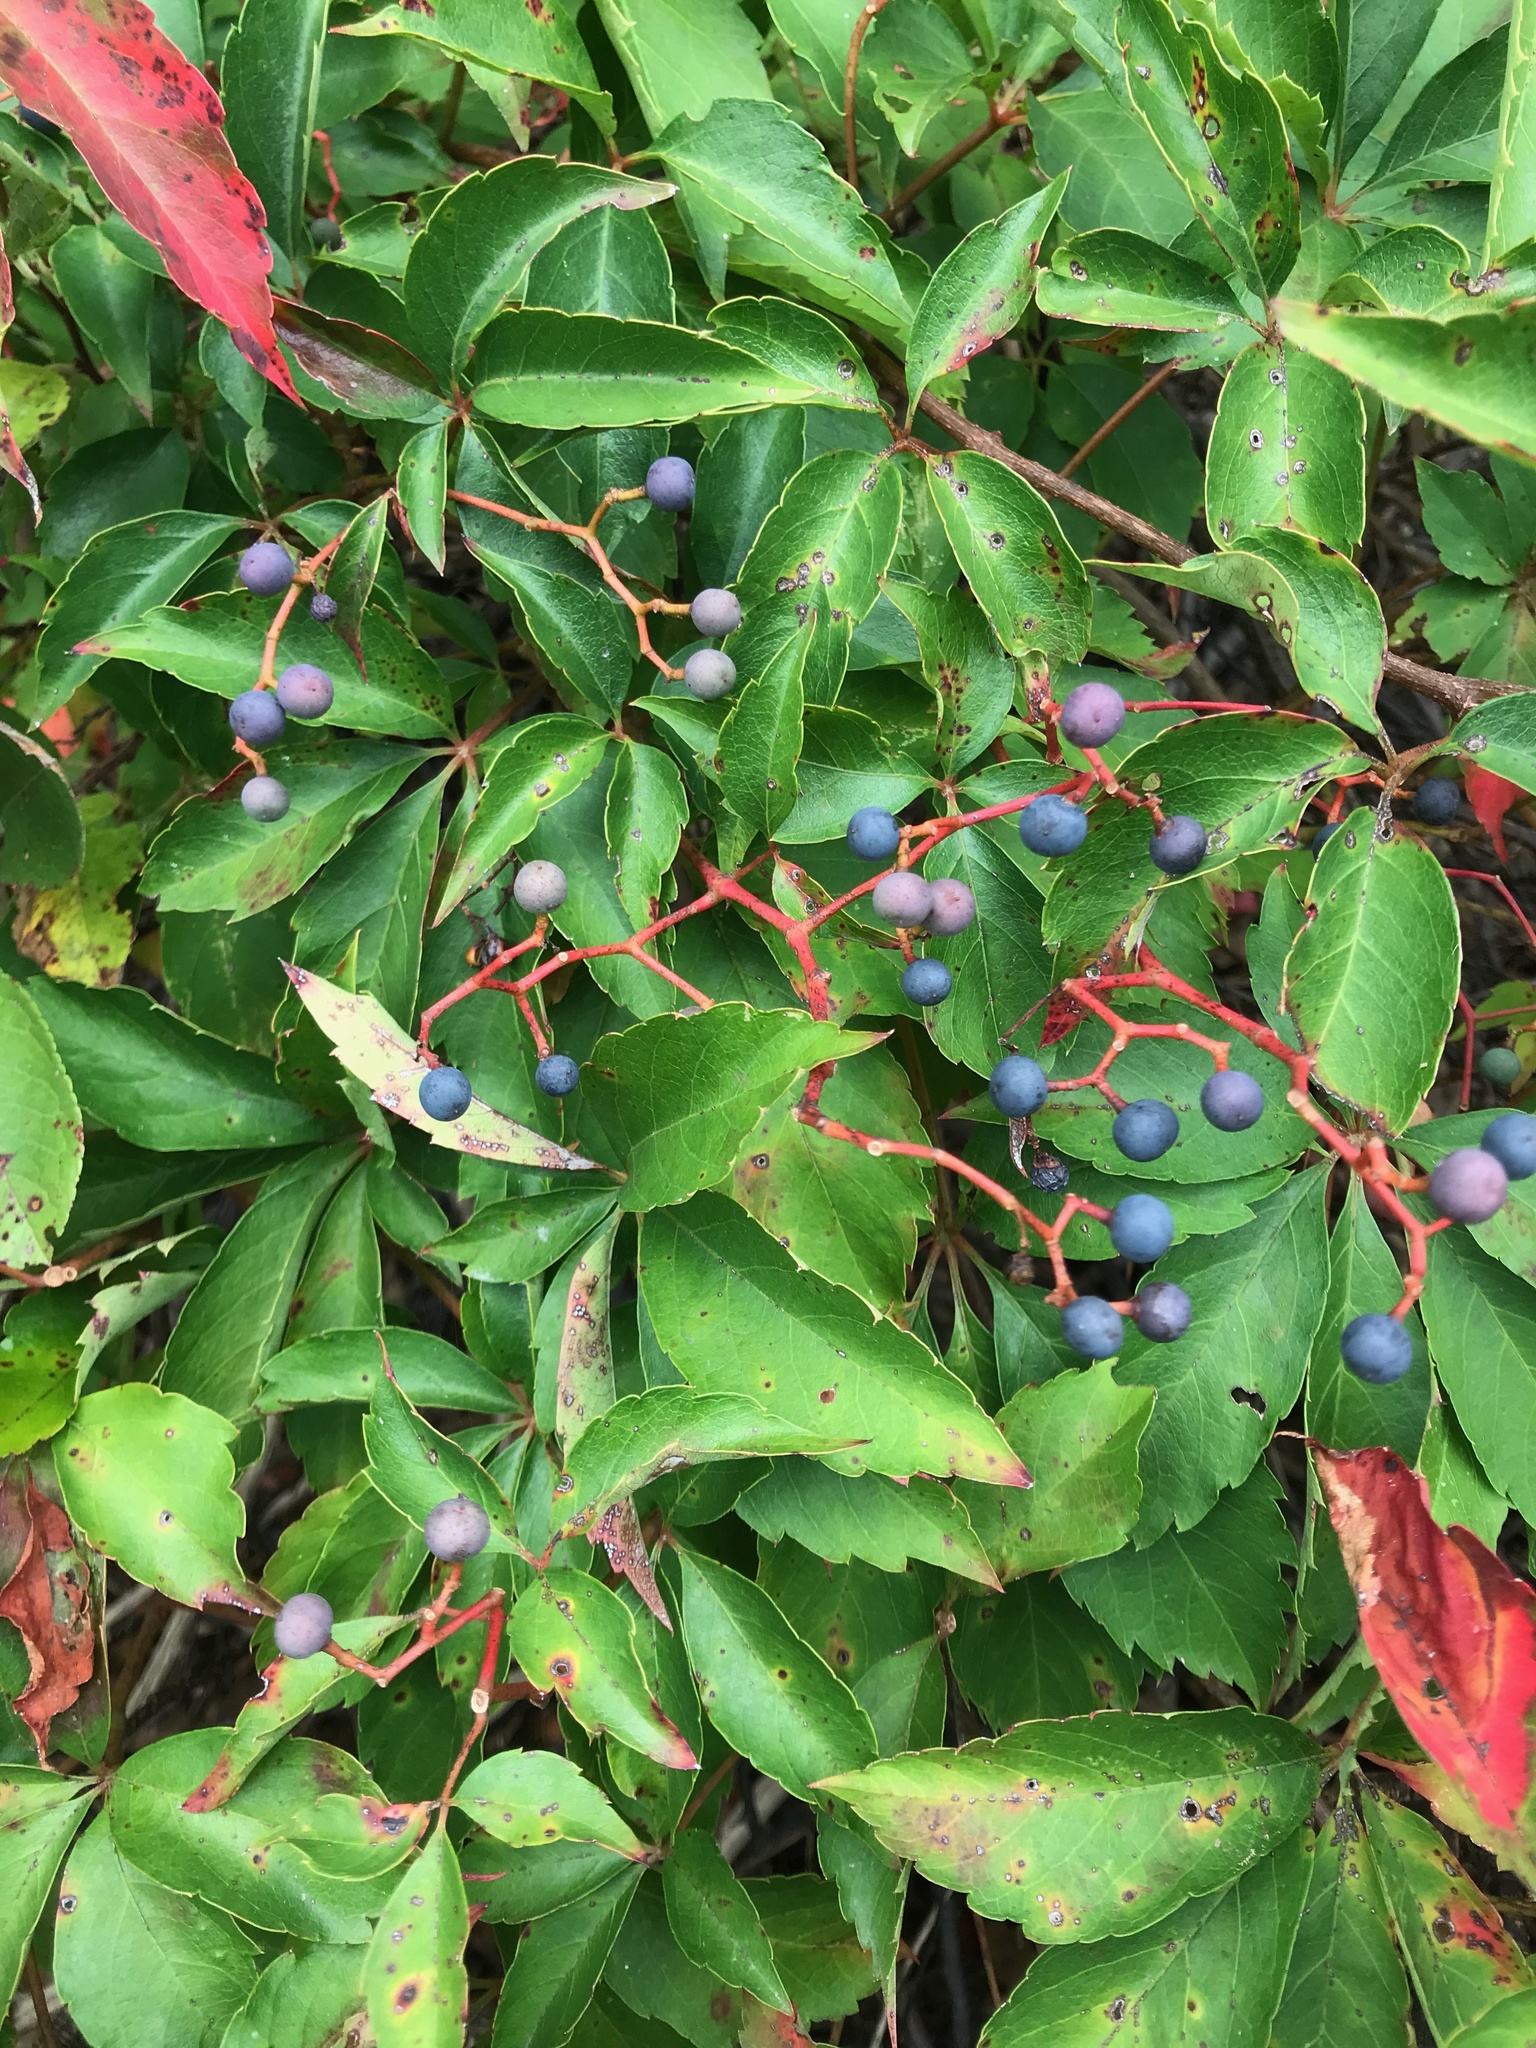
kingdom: Plantae
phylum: Tracheophyta
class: Magnoliopsida
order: Vitales
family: Vitaceae
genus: Parthenocissus
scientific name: Parthenocissus quinquefolia
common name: Virginia-creeper
